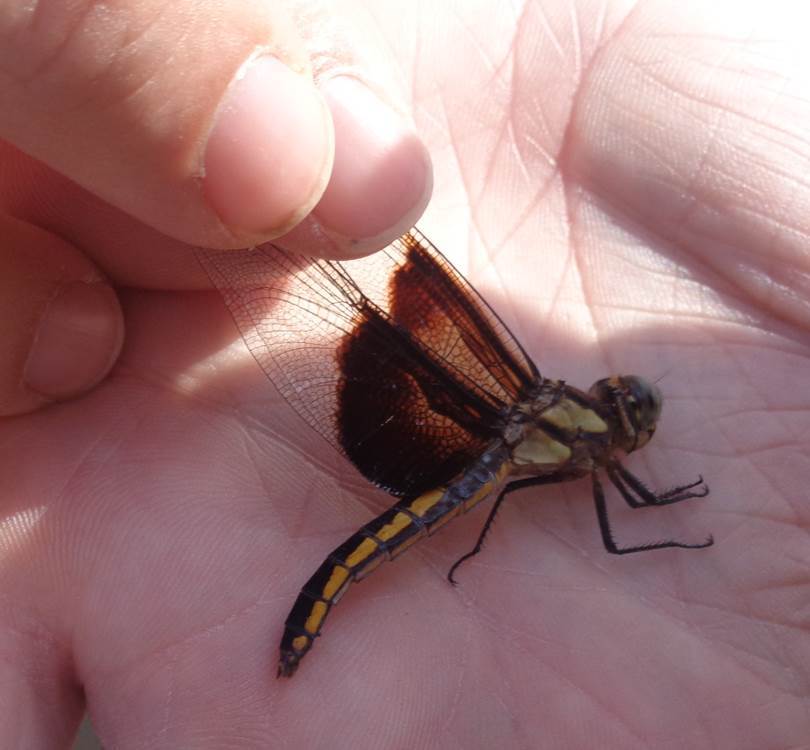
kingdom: Animalia
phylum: Arthropoda
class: Insecta
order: Odonata
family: Libellulidae
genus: Libellula
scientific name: Libellula luctuosa
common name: Widow skimmer
